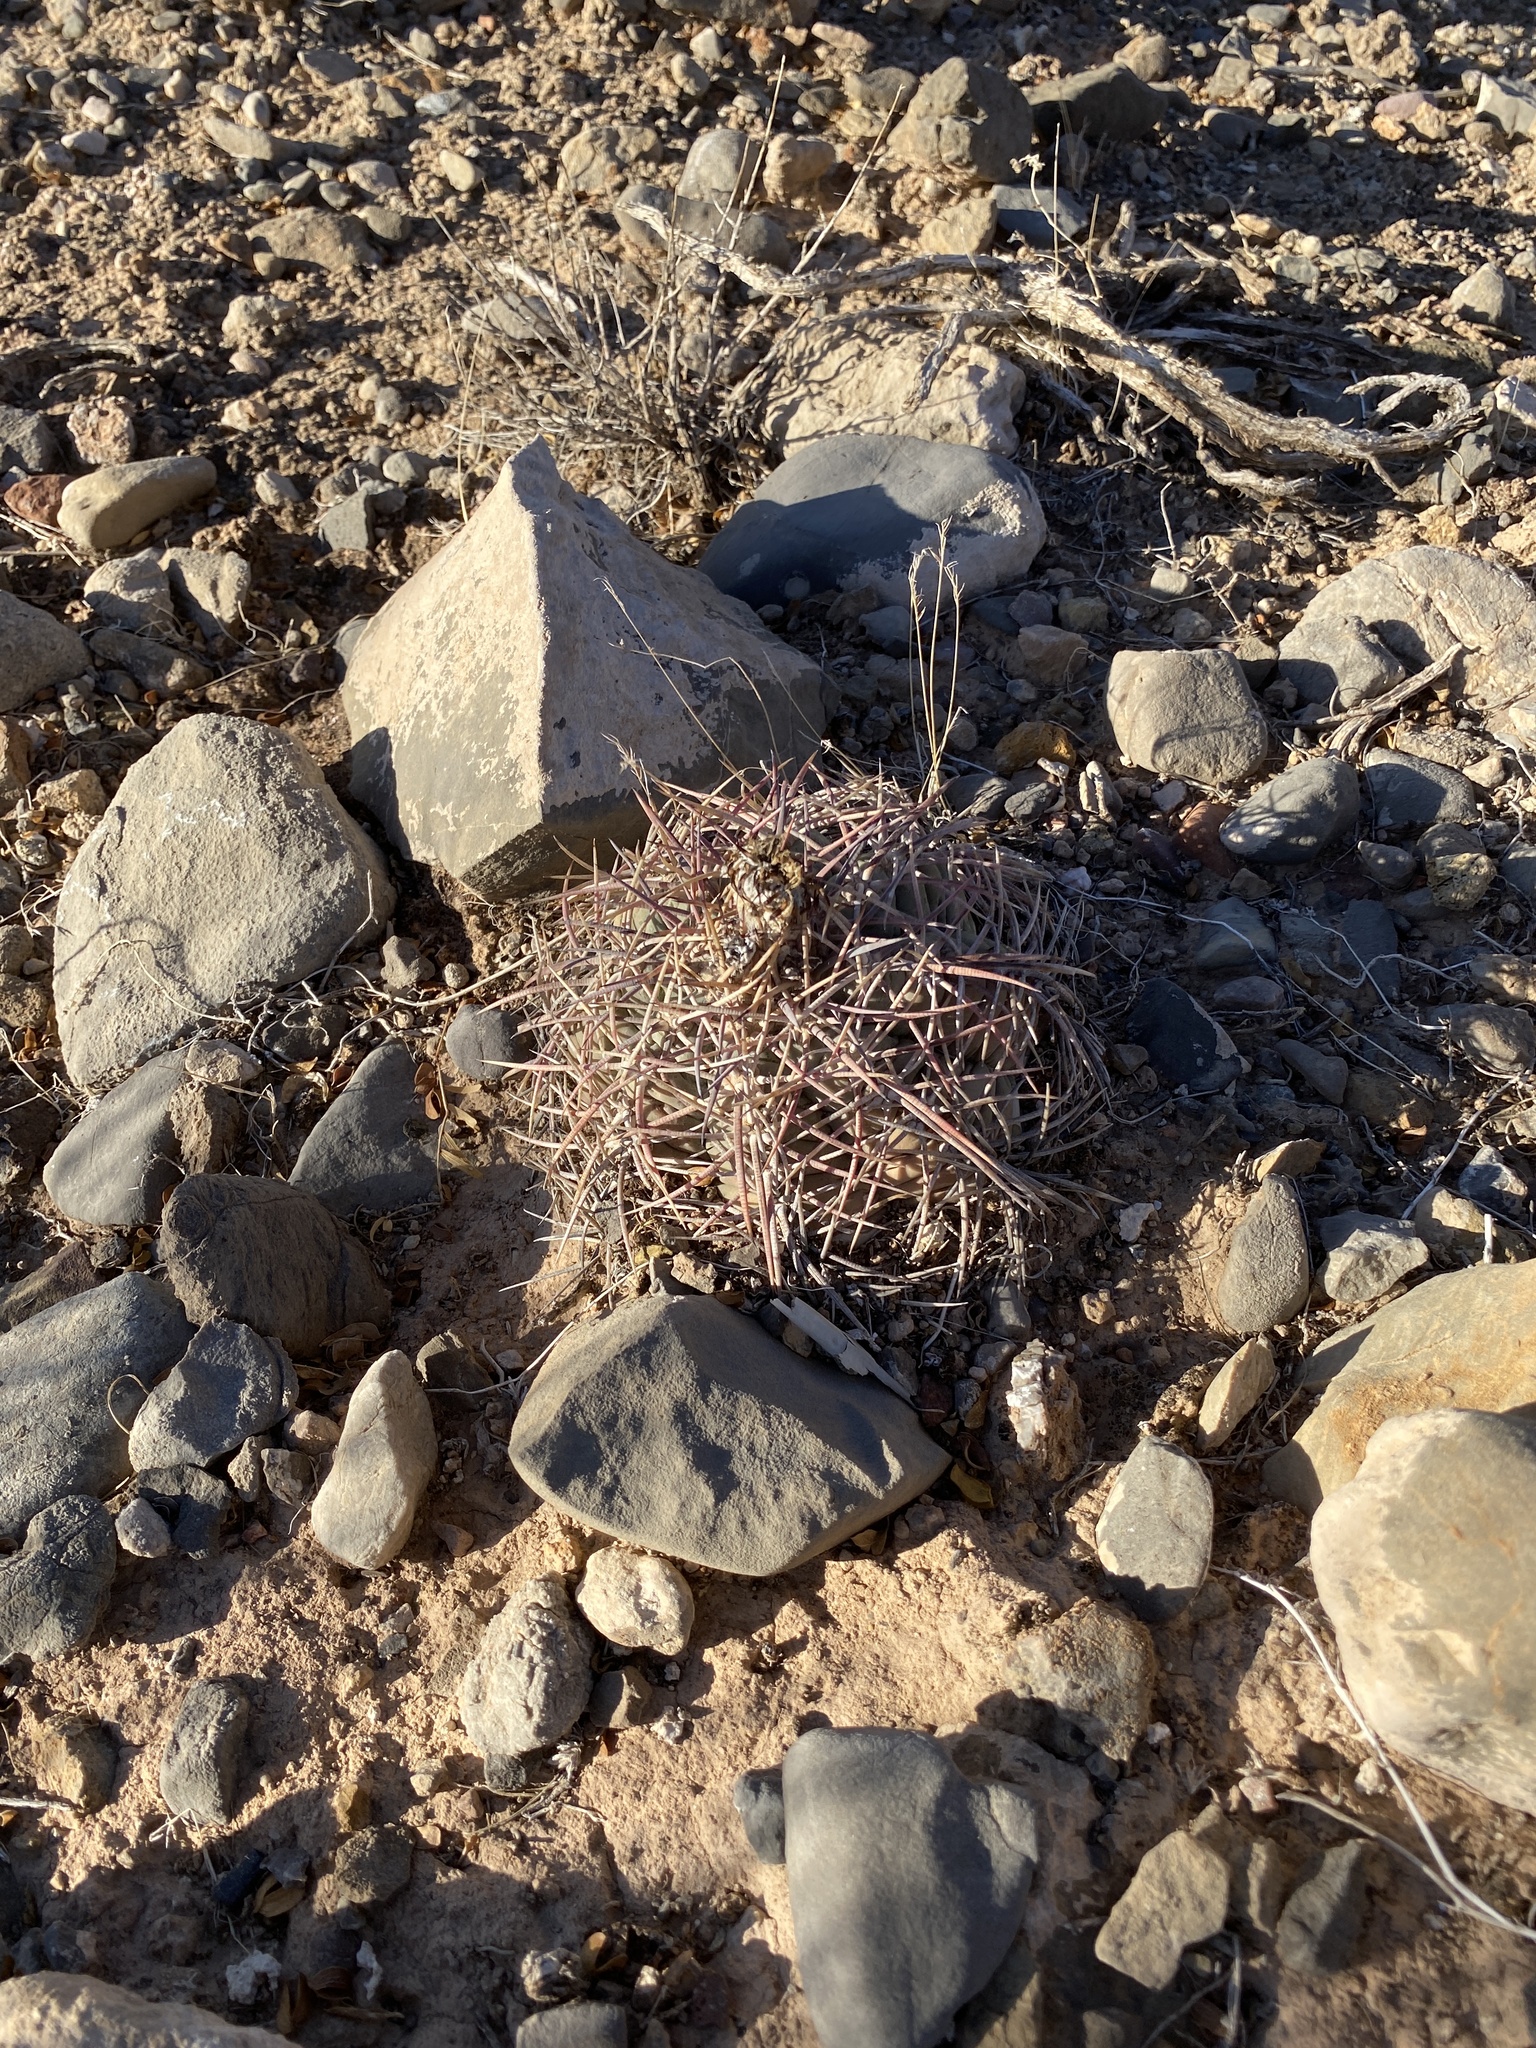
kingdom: Plantae
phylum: Tracheophyta
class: Magnoliopsida
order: Caryophyllales
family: Cactaceae
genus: Echinocactus
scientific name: Echinocactus horizonthalonius
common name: Devilshead
